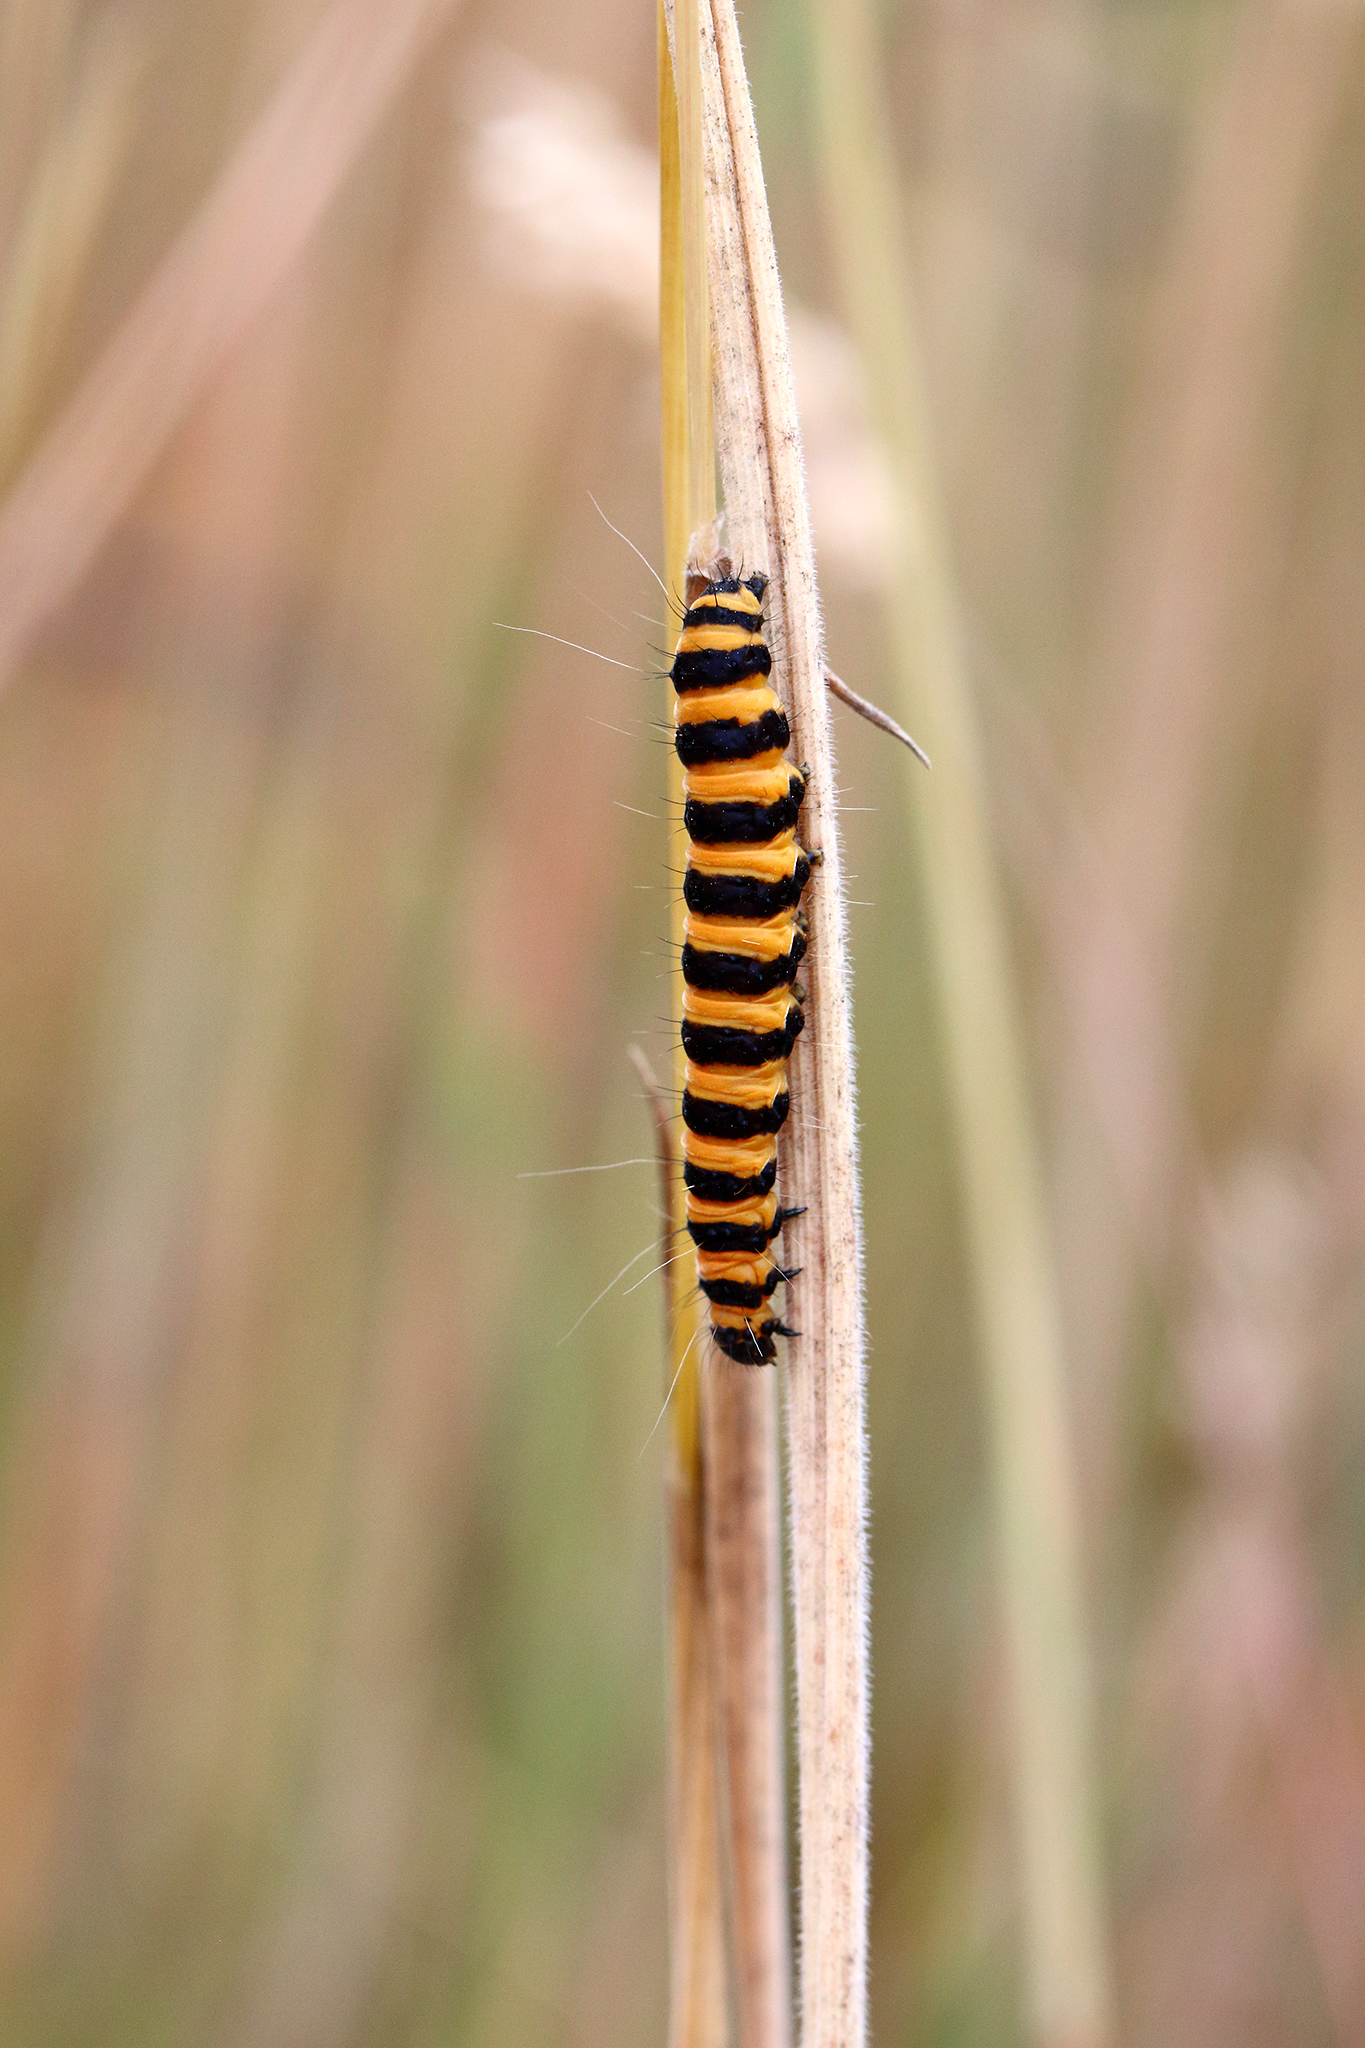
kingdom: Animalia
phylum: Arthropoda
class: Insecta
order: Lepidoptera
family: Erebidae
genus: Tyria
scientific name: Tyria jacobaeae
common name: Cinnabar
